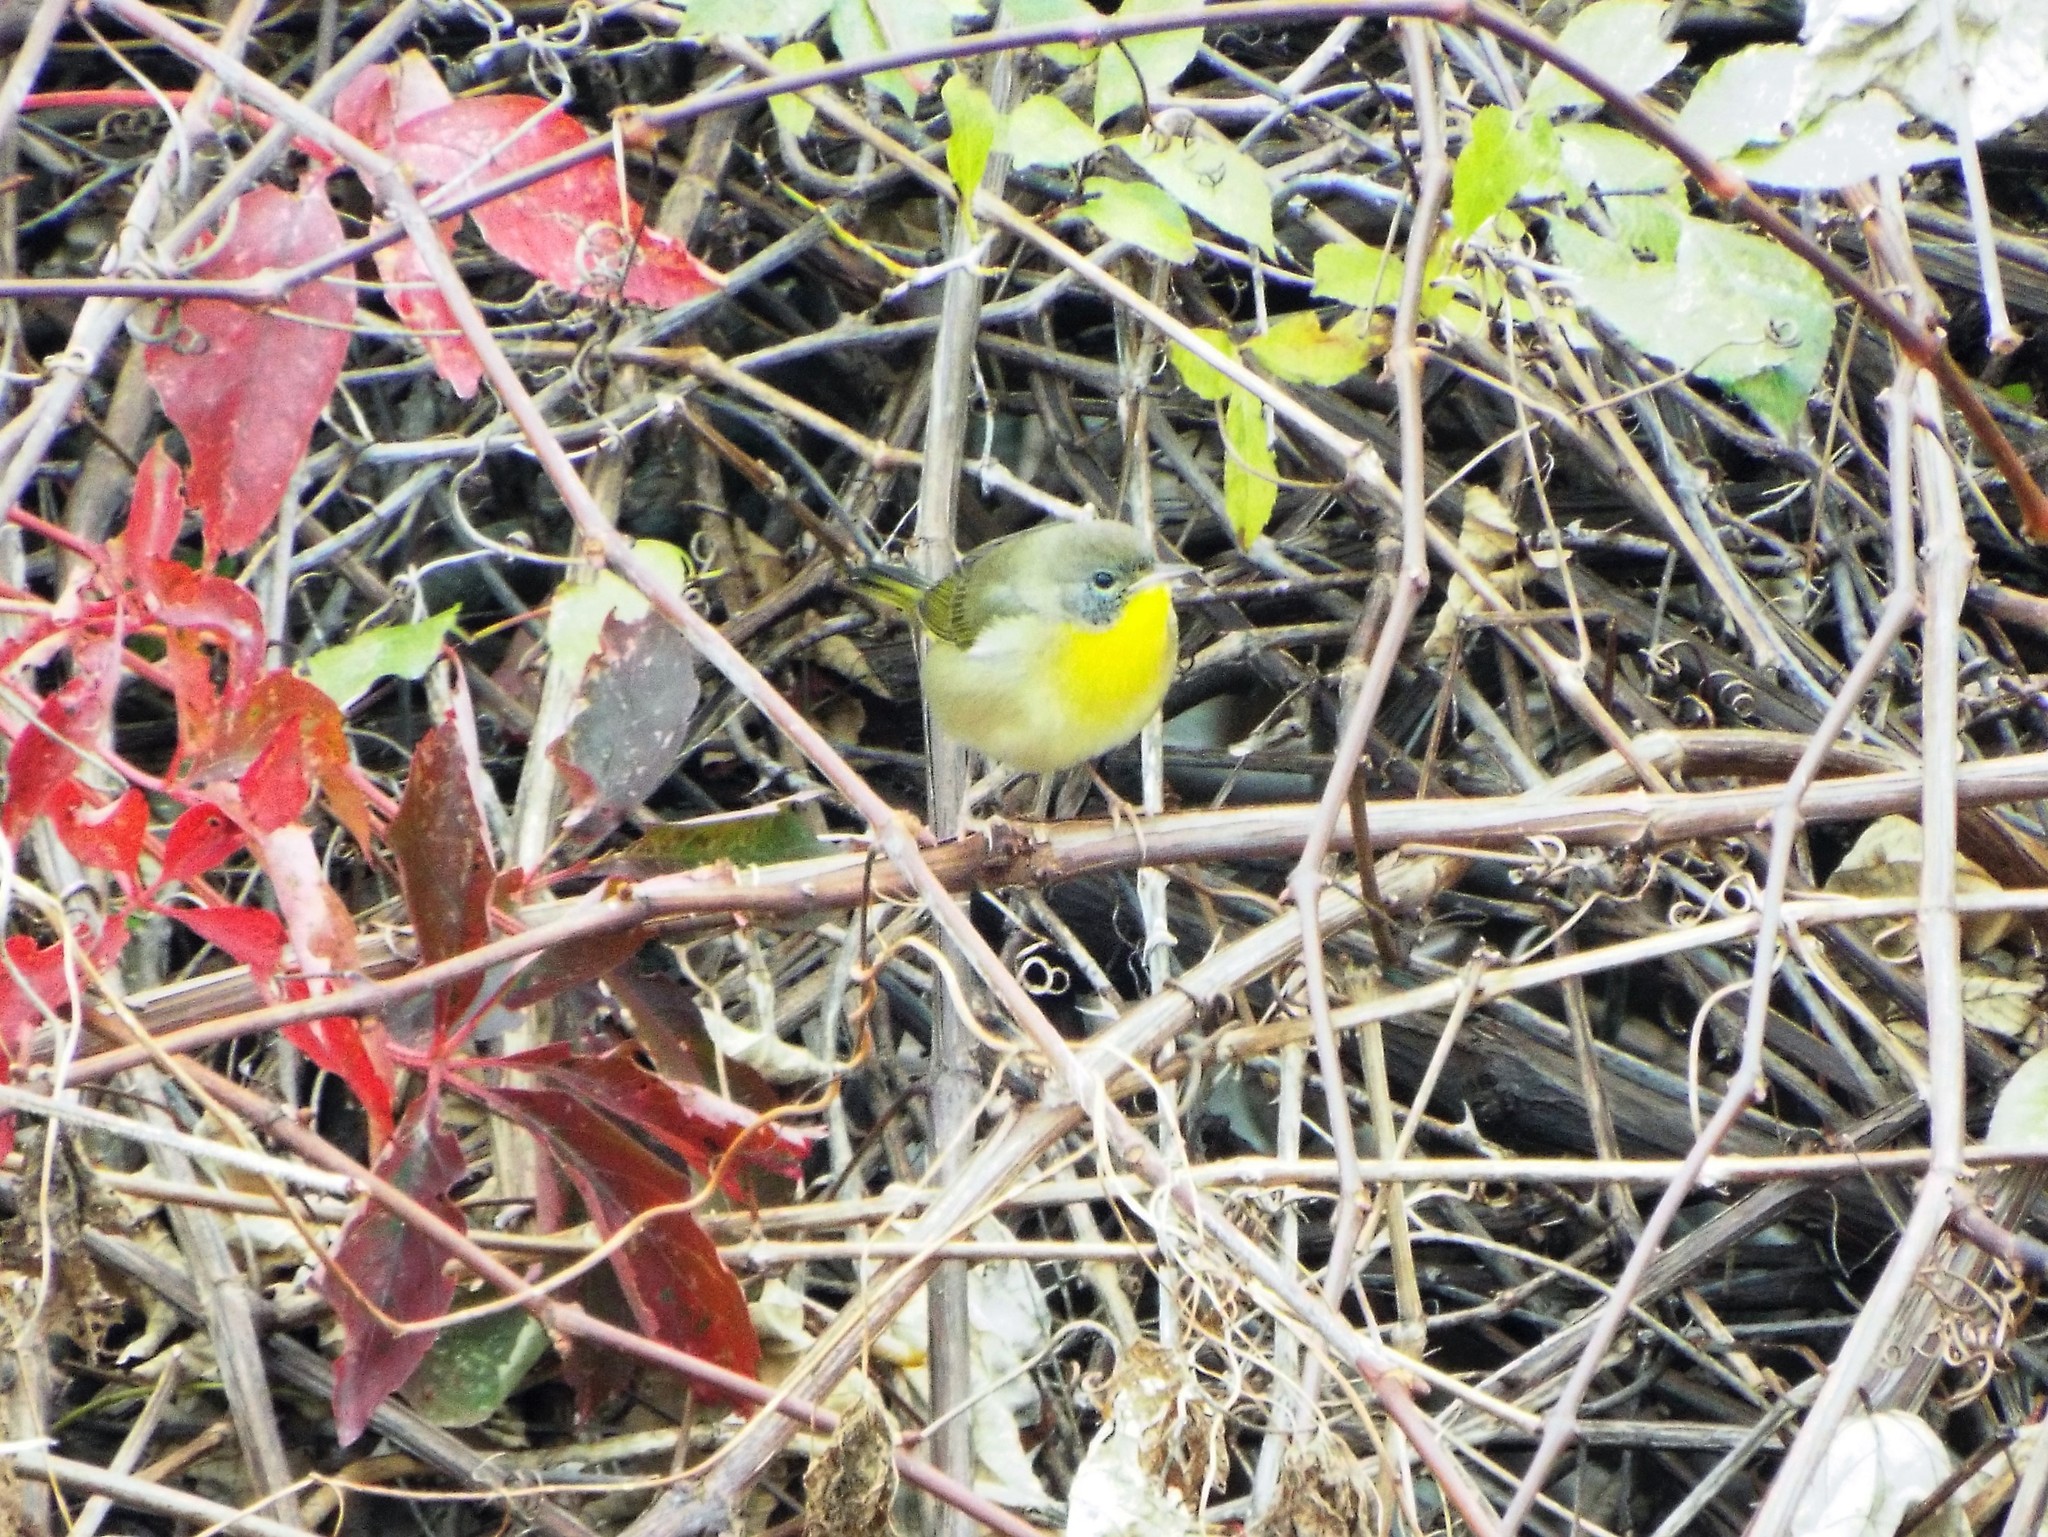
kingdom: Animalia
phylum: Chordata
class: Aves
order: Passeriformes
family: Parulidae
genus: Geothlypis
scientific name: Geothlypis trichas
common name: Common yellowthroat
